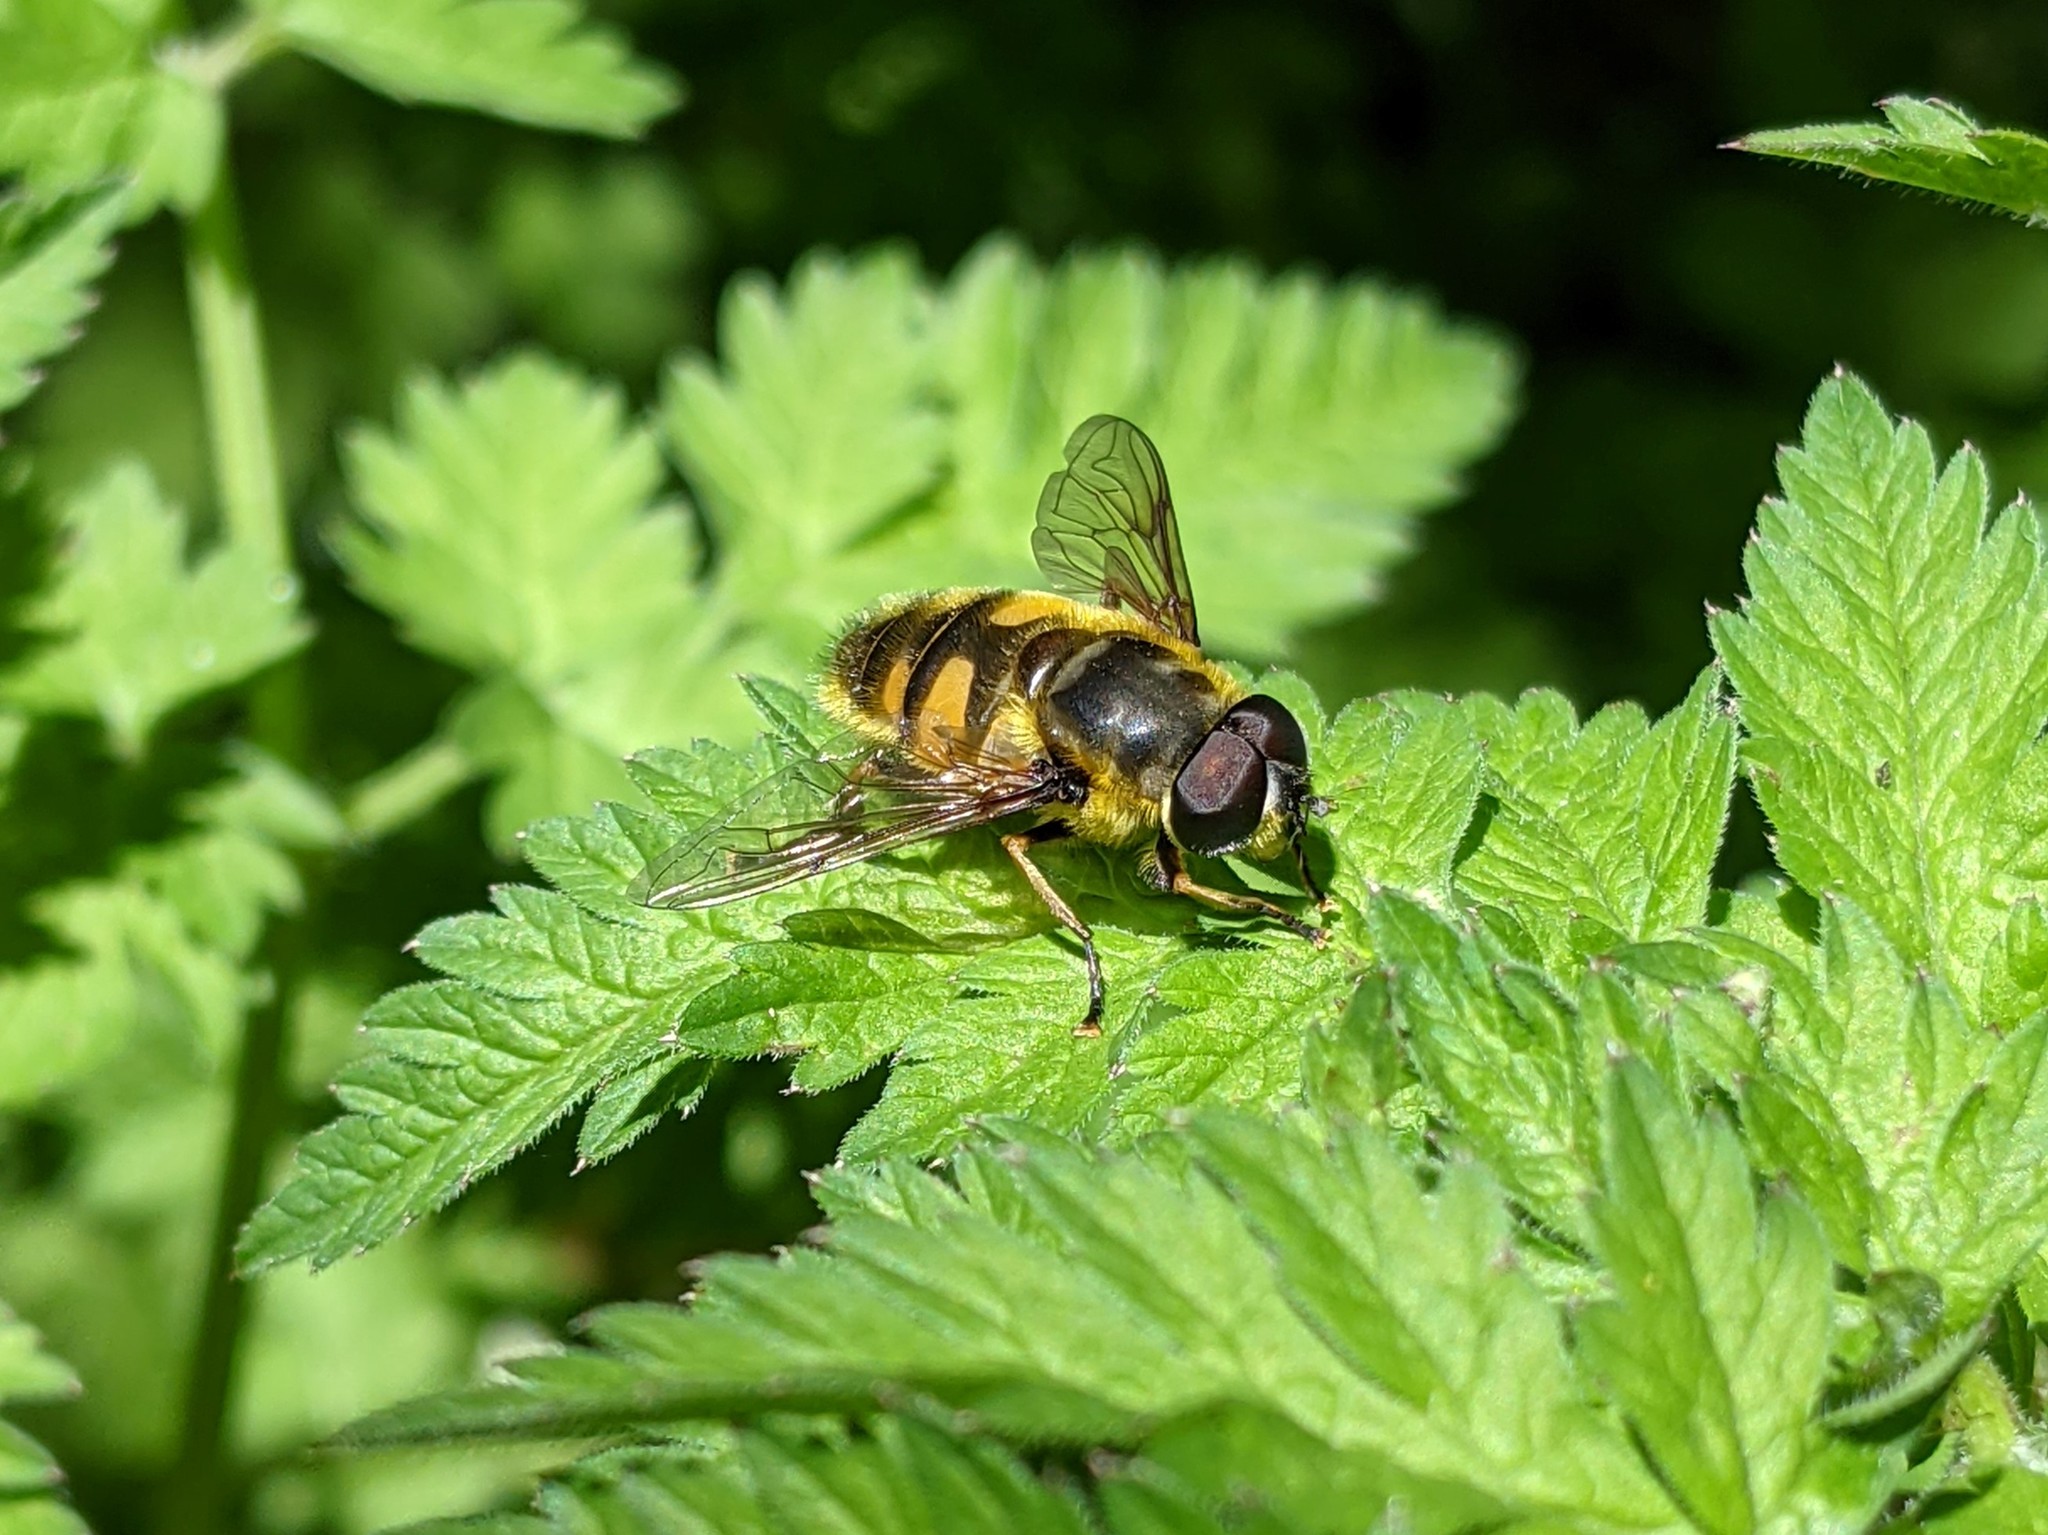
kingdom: Animalia
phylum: Arthropoda
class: Insecta
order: Diptera
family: Syrphidae
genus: Myathropa
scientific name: Myathropa florea
